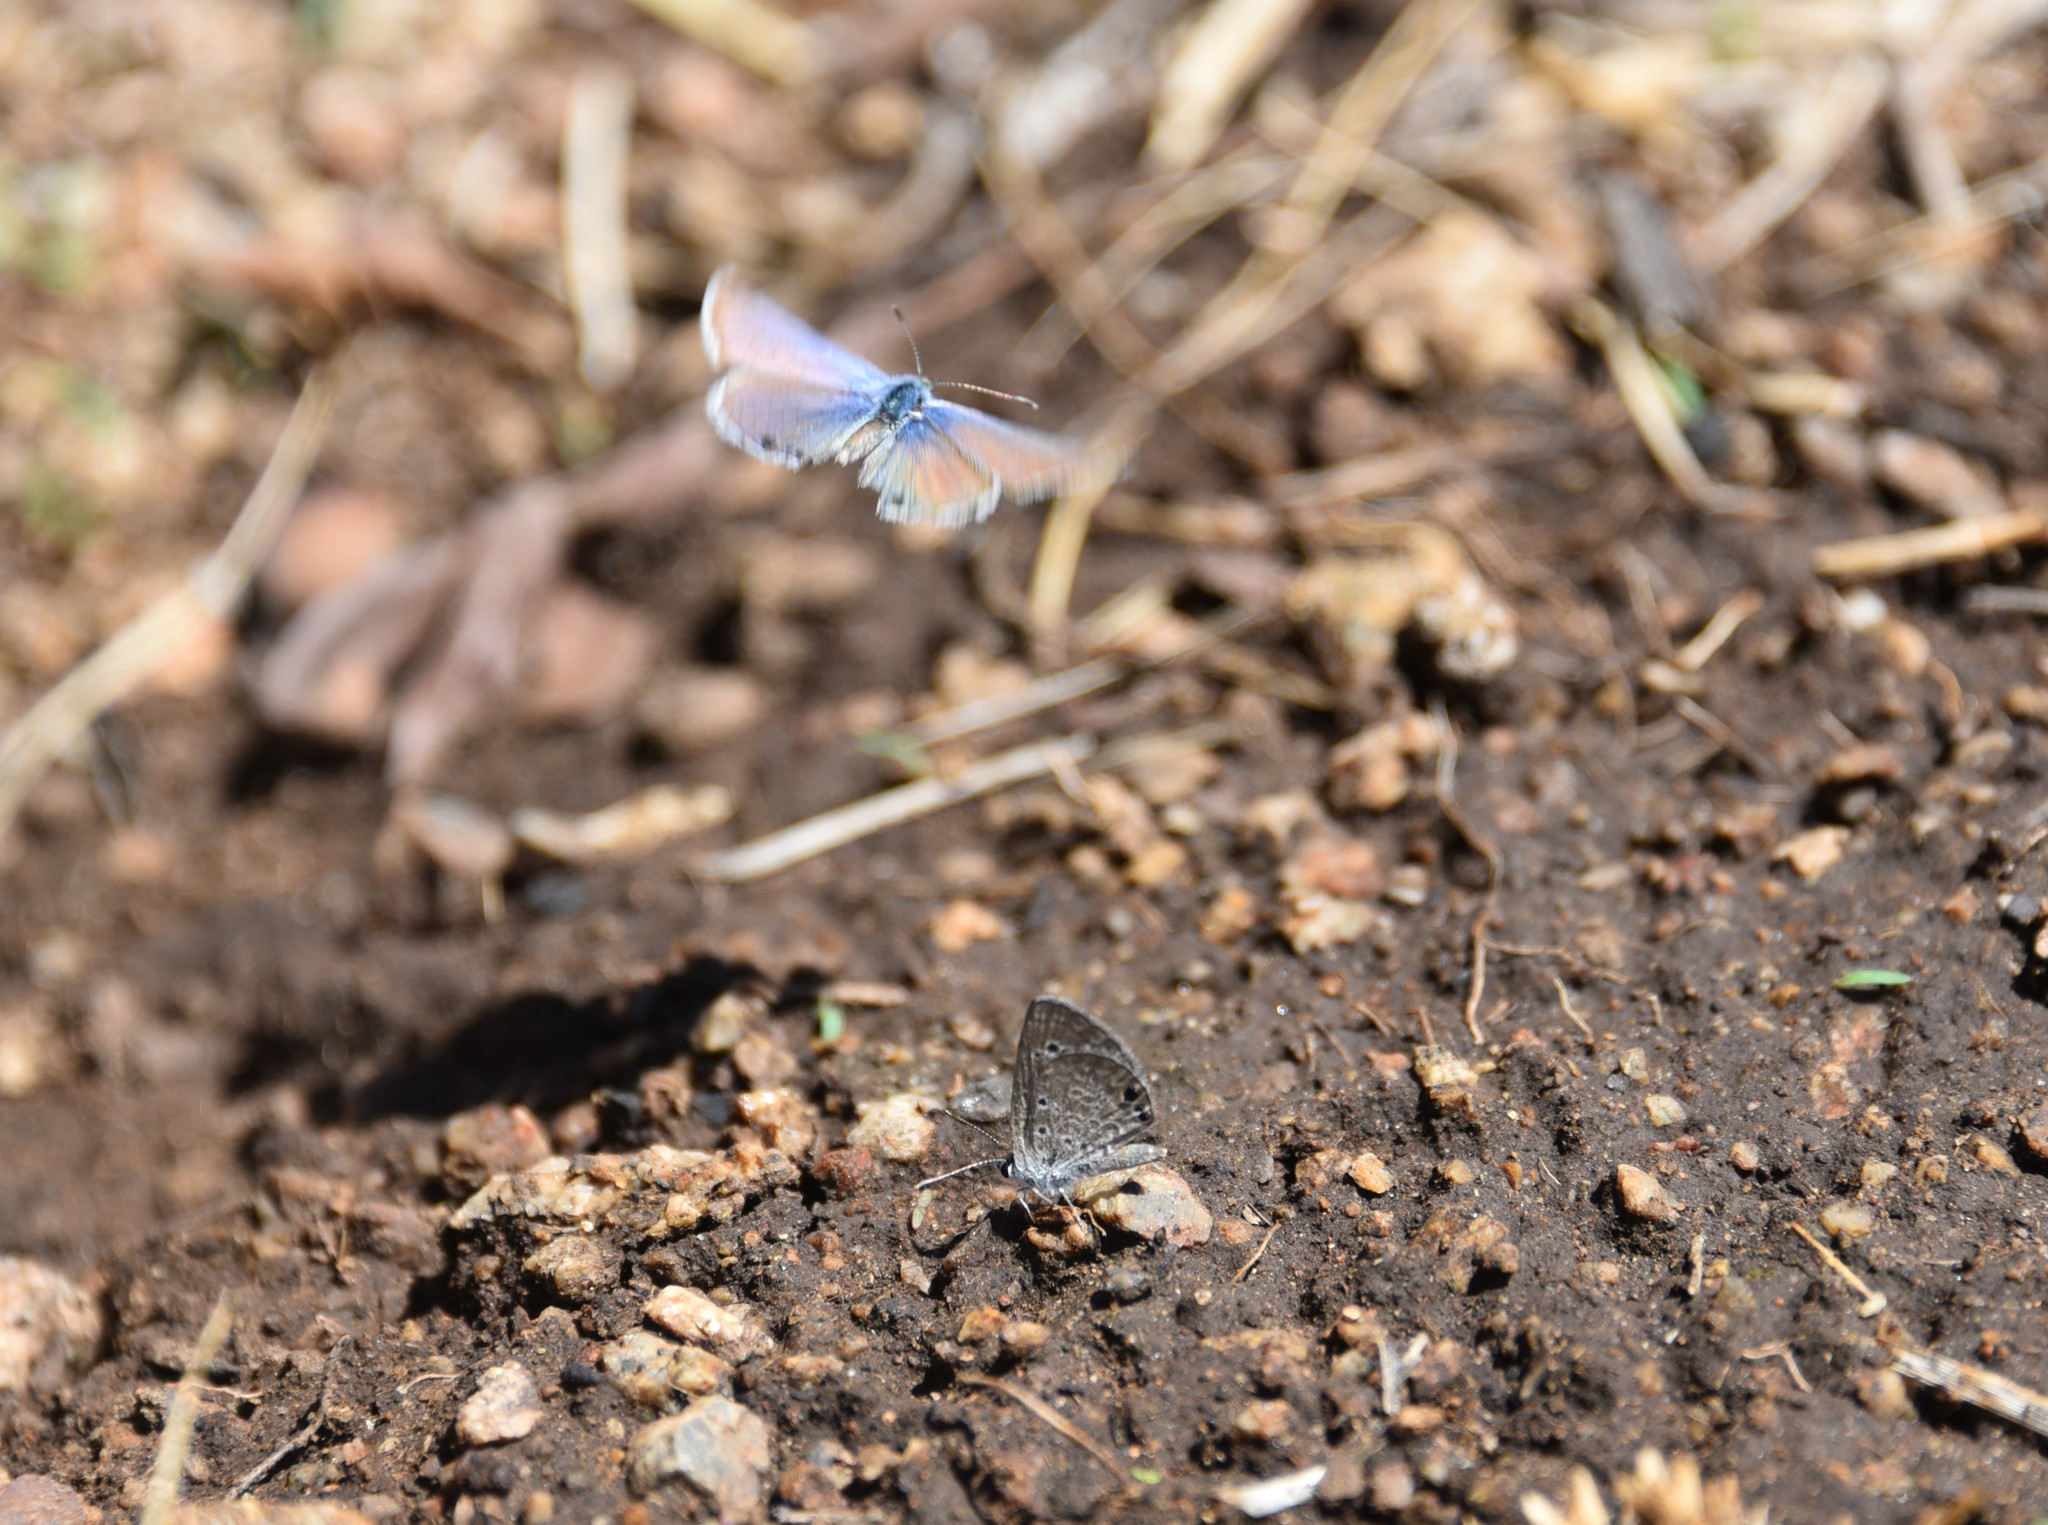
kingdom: Animalia
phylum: Arthropoda
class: Insecta
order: Lepidoptera
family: Lycaenidae
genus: Echinargus
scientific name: Echinargus isola
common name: Reakirt's blue
